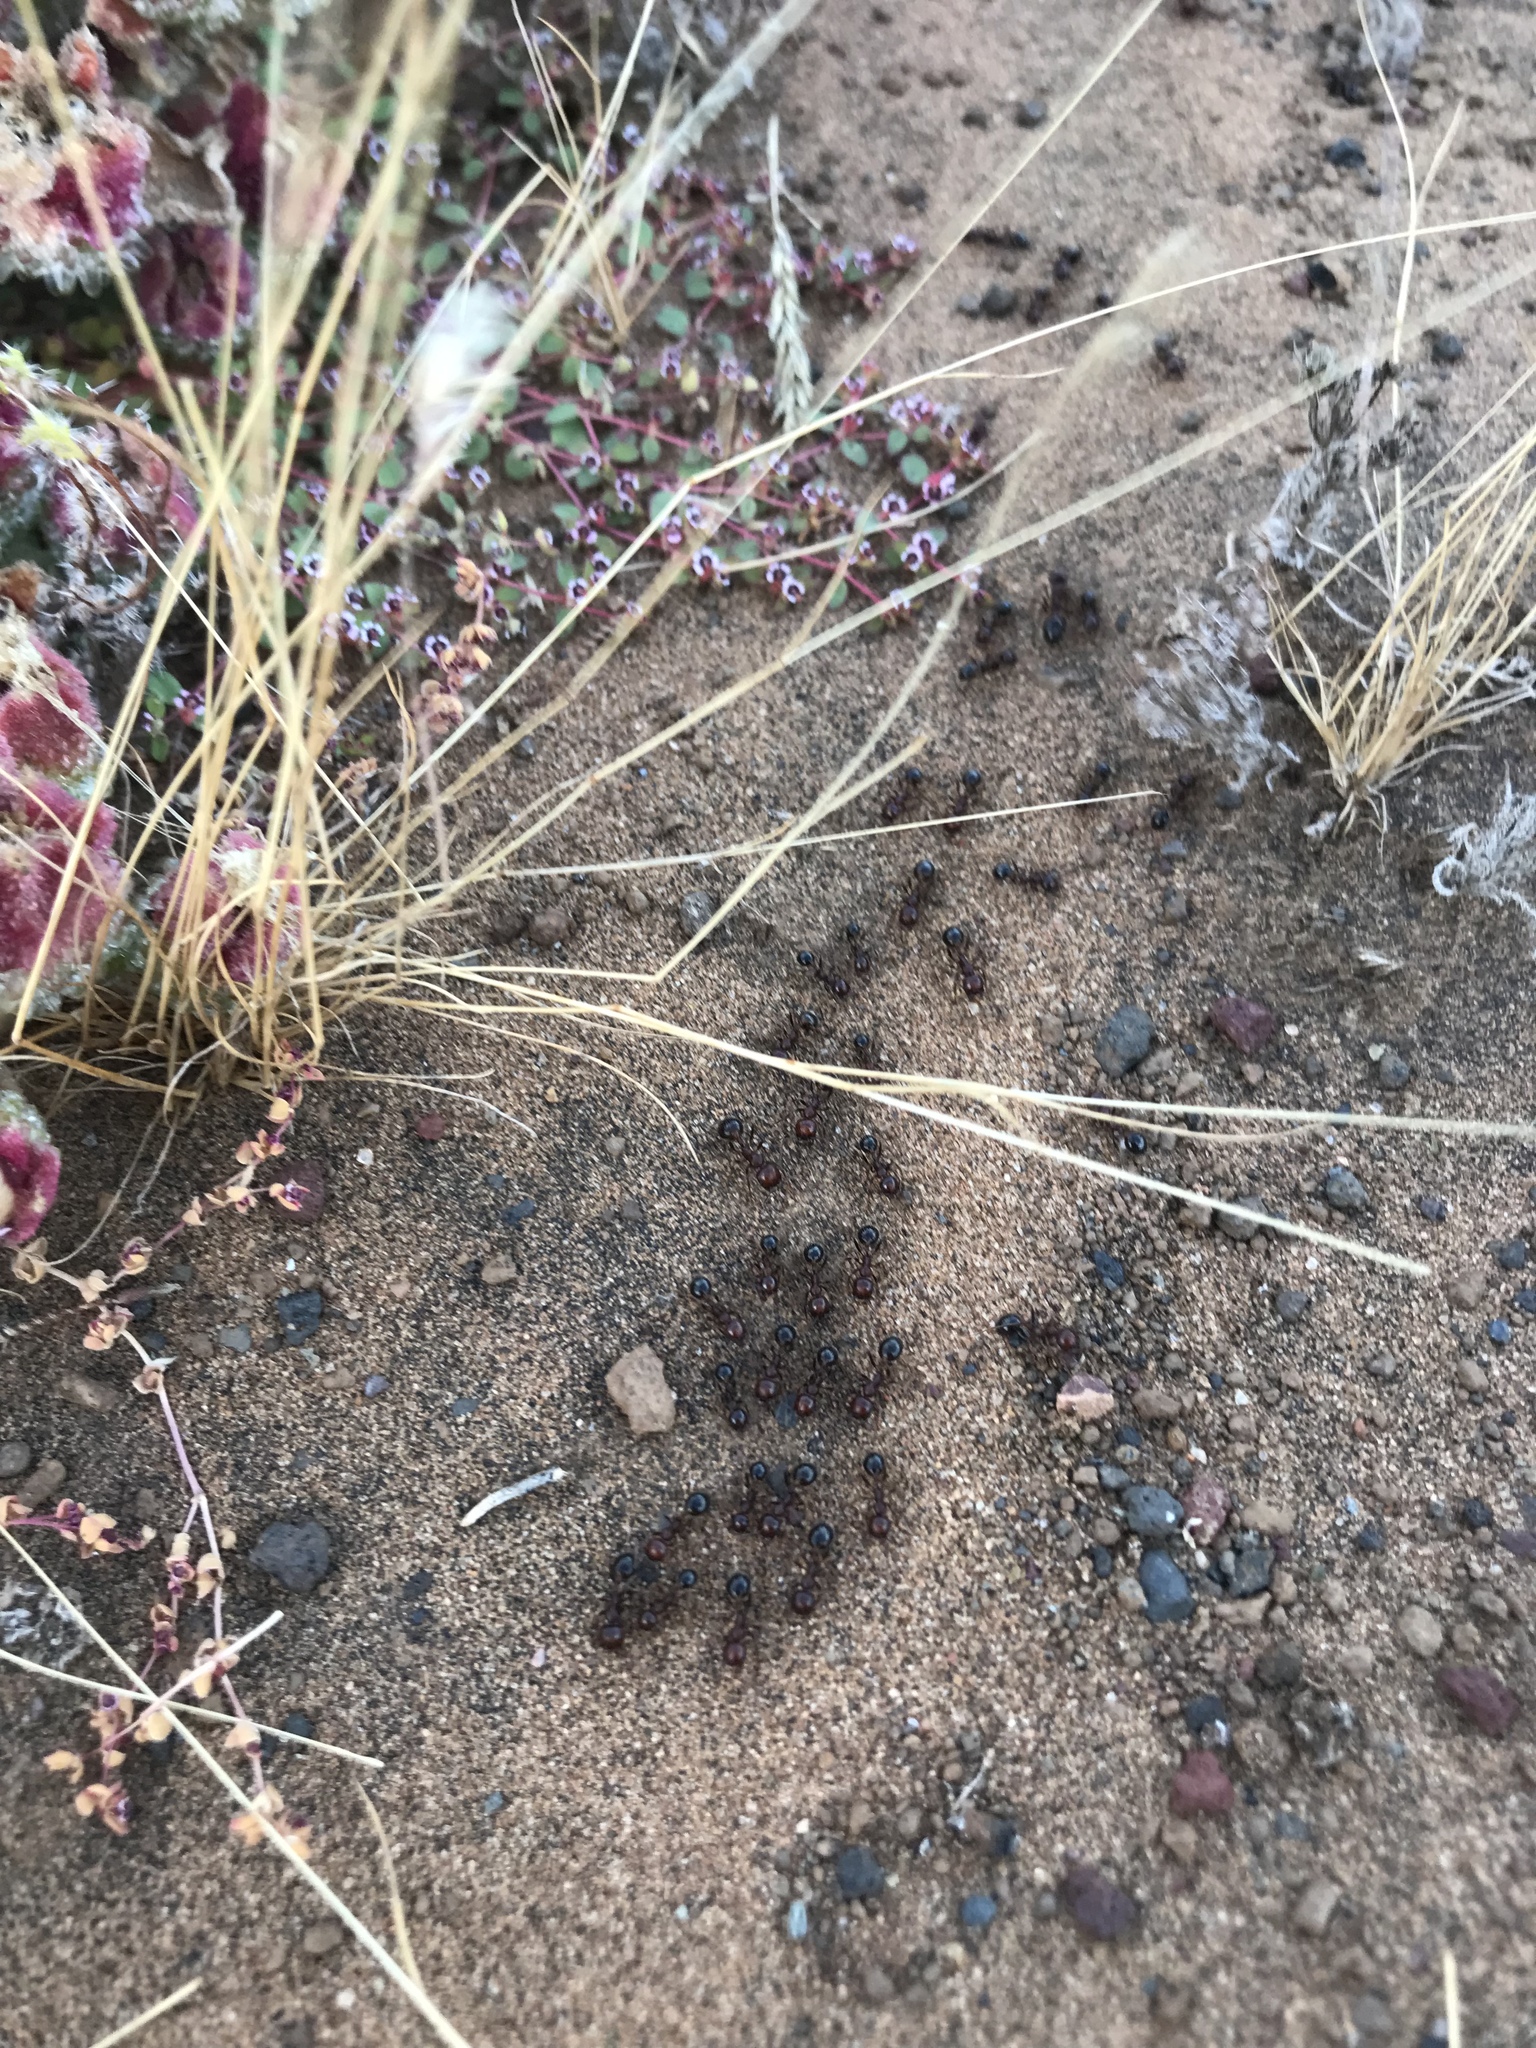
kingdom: Animalia
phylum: Arthropoda
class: Insecta
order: Hymenoptera
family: Formicidae
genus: Messor
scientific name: Messor julianus
